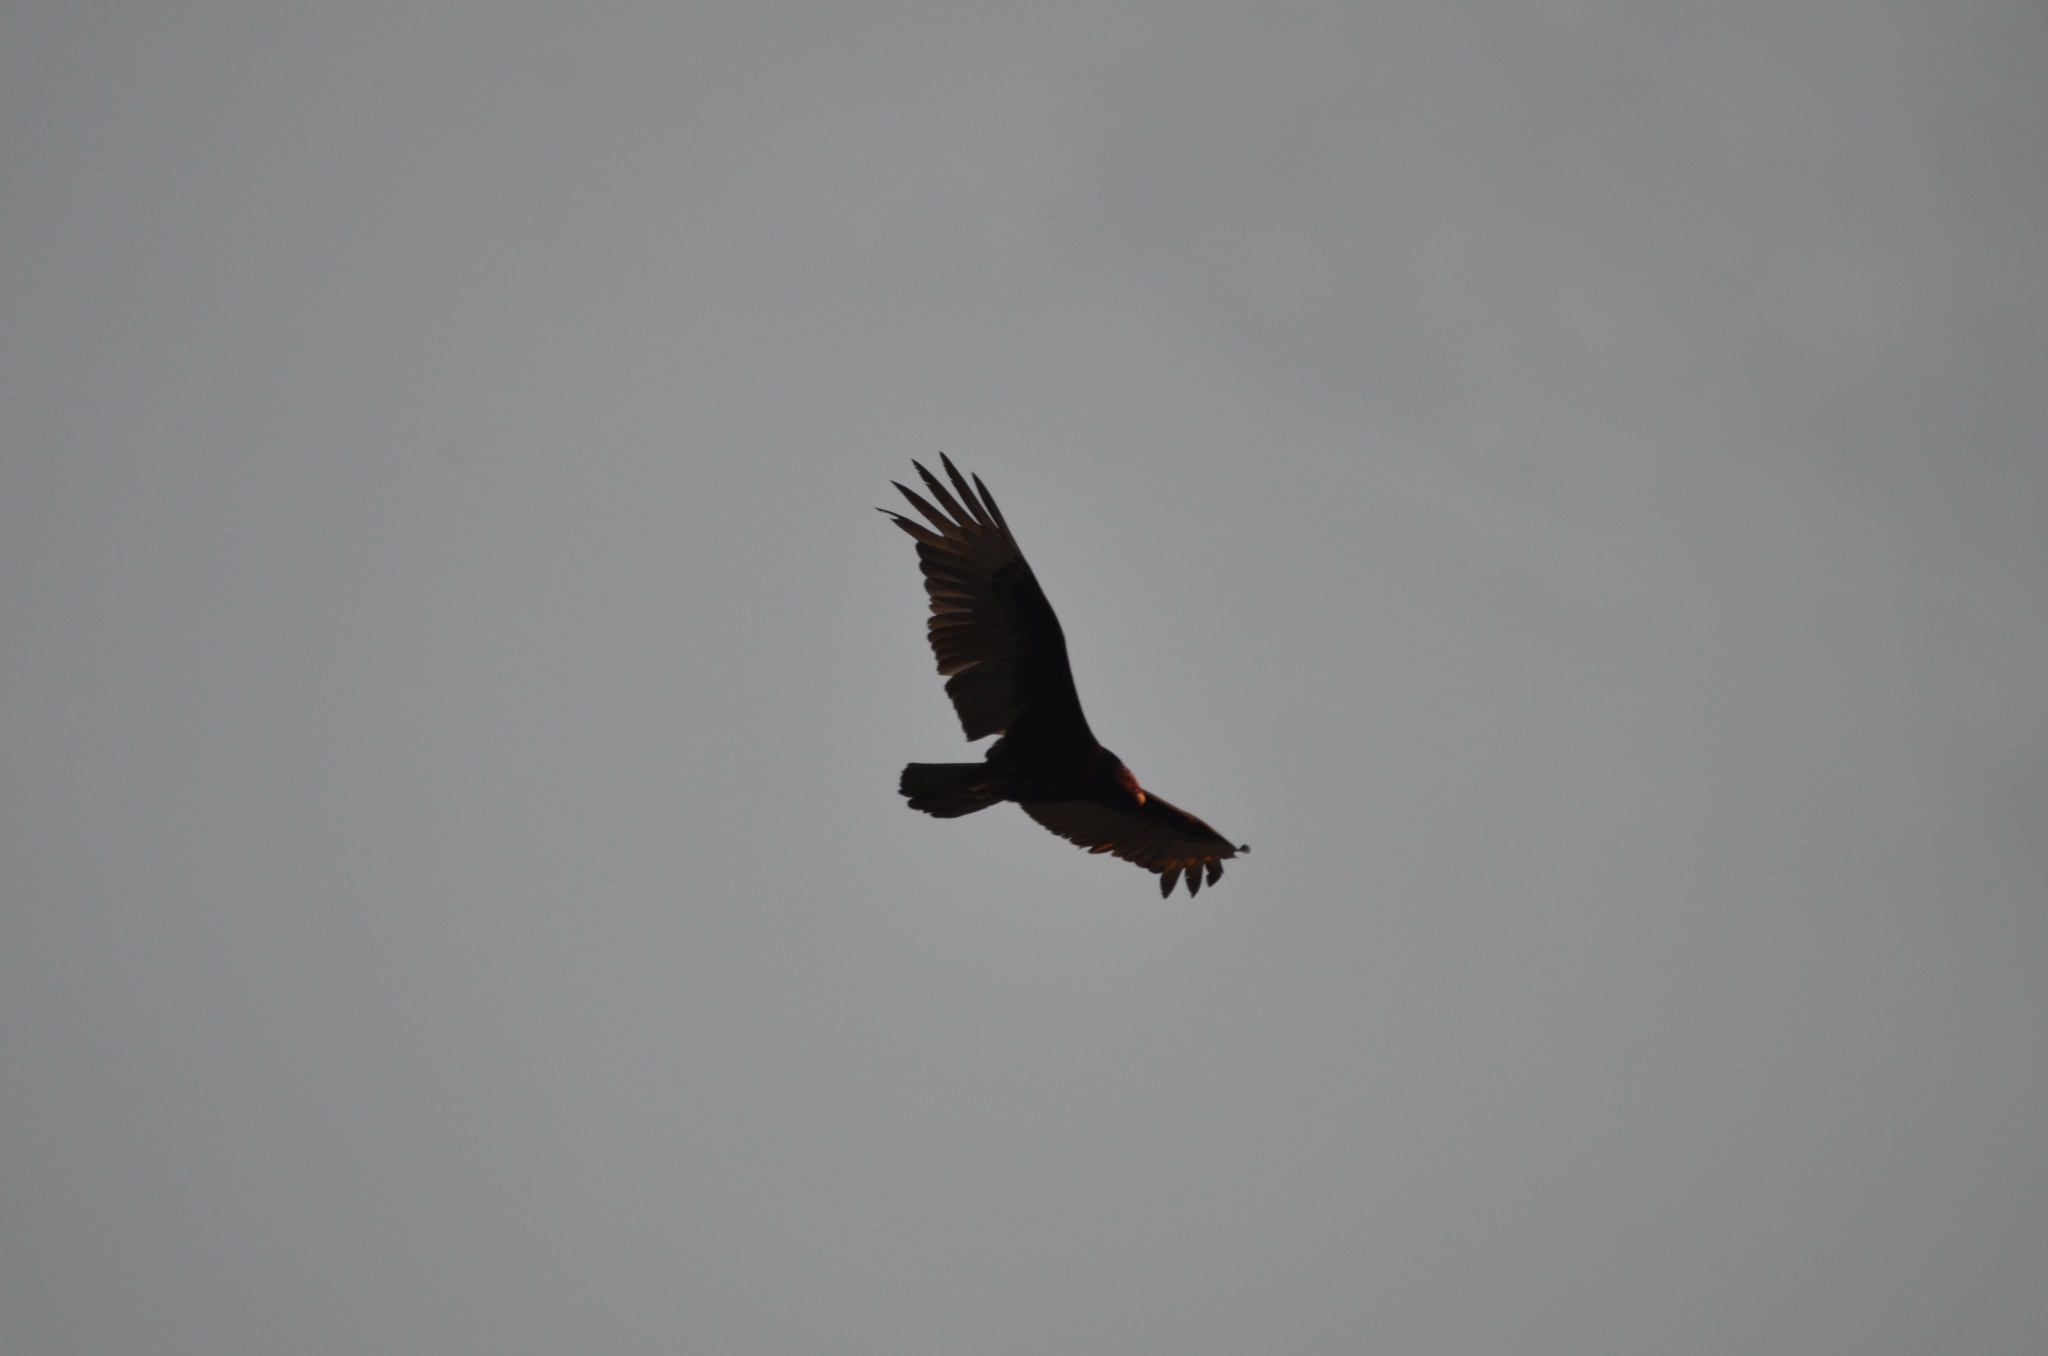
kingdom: Animalia
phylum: Chordata
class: Aves
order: Accipitriformes
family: Cathartidae
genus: Cathartes
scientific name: Cathartes aura
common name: Turkey vulture
